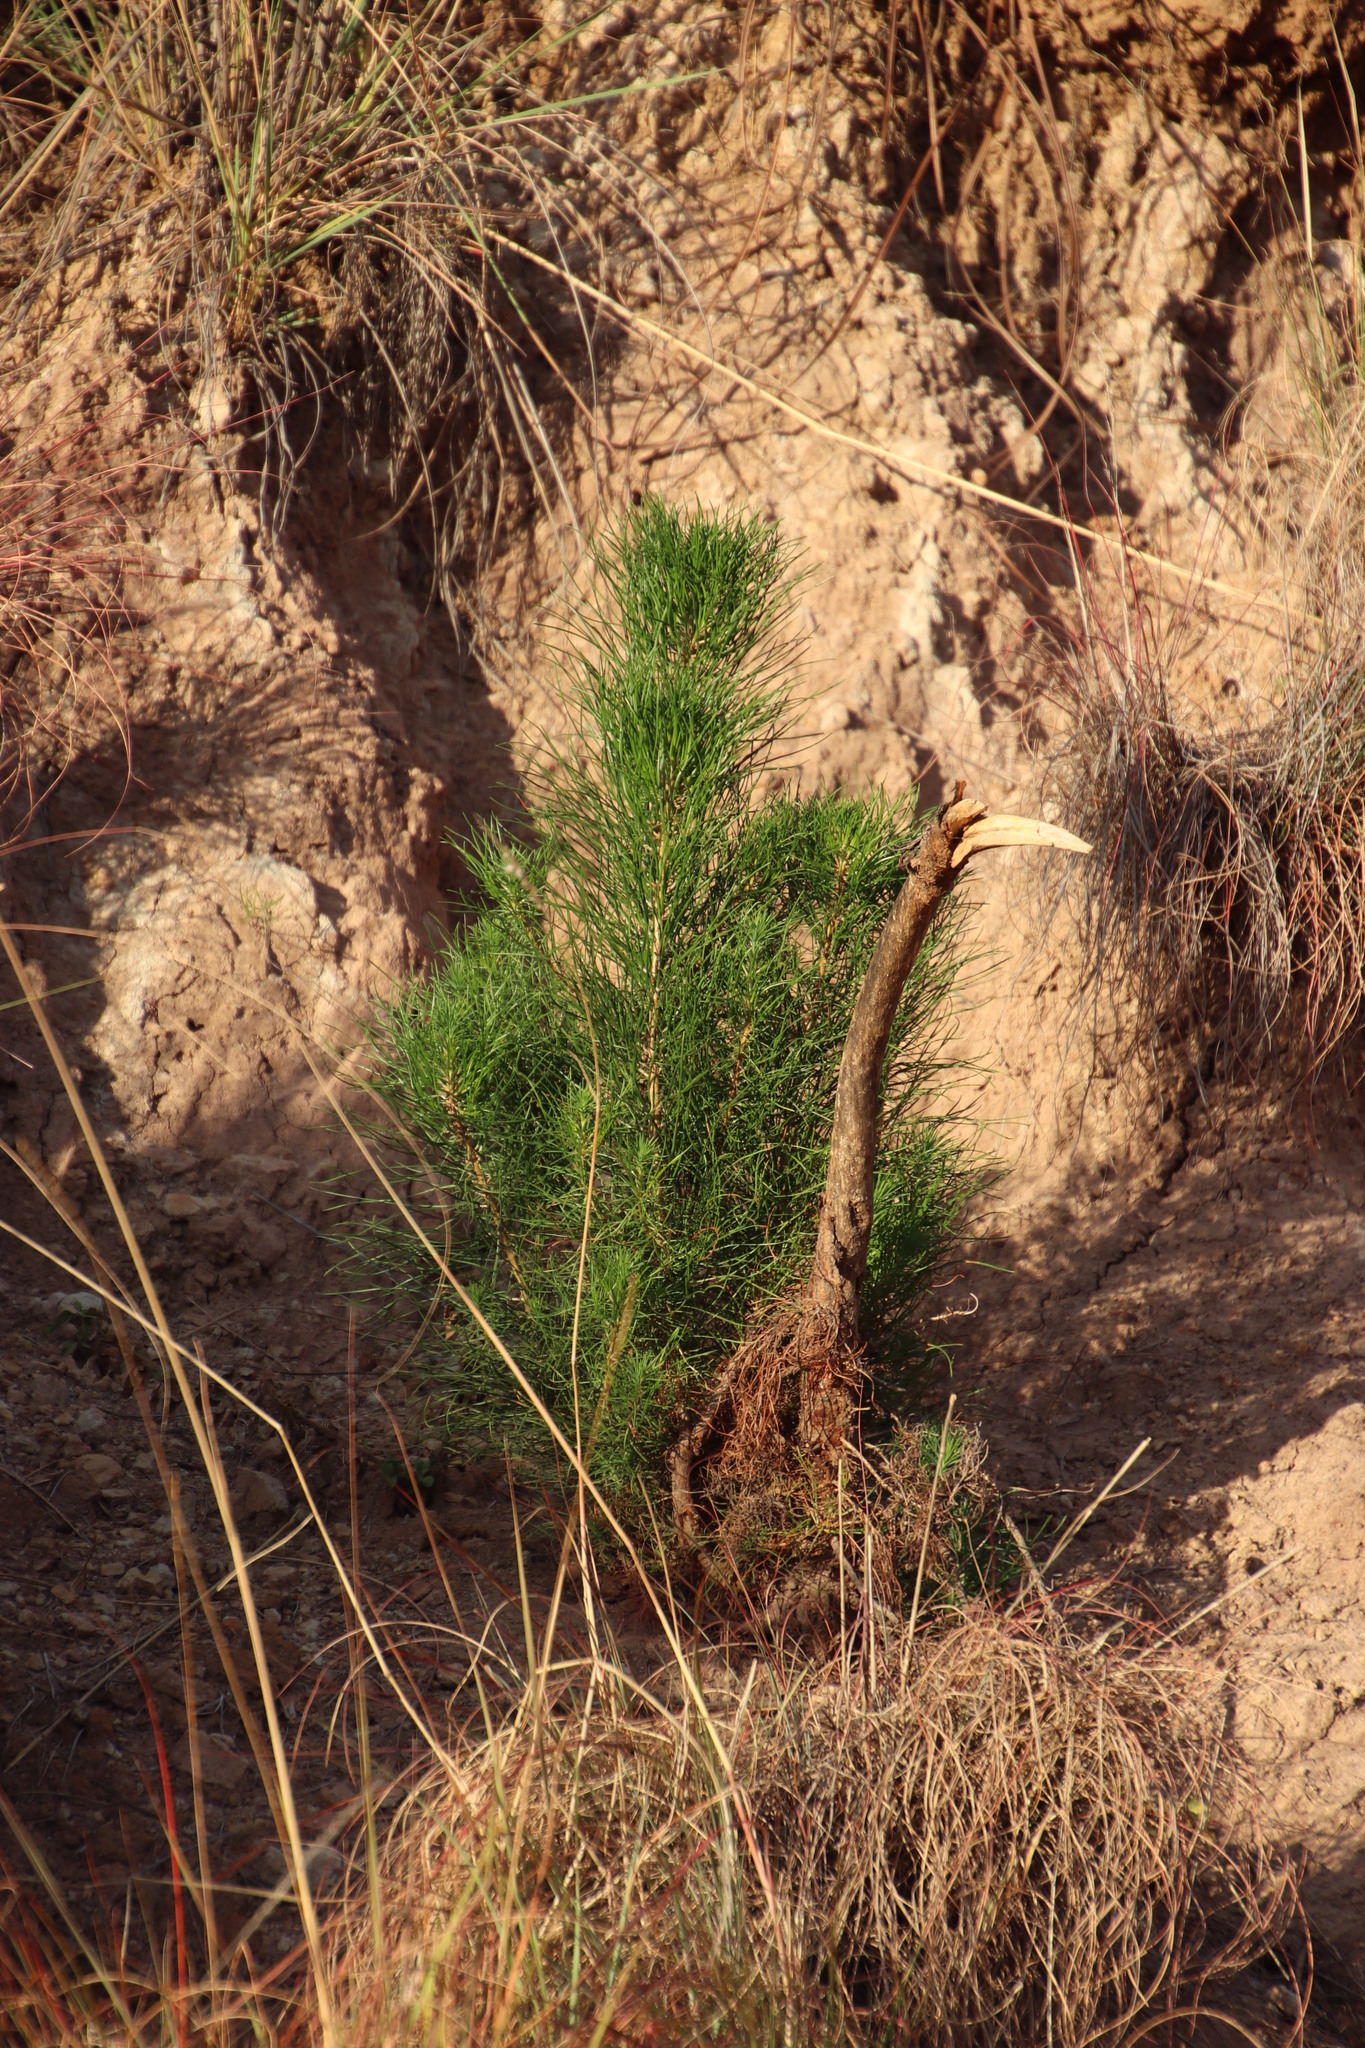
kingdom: Plantae
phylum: Tracheophyta
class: Pinopsida
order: Pinales
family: Pinaceae
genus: Pinus
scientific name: Pinus radiata
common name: Monterey pine
